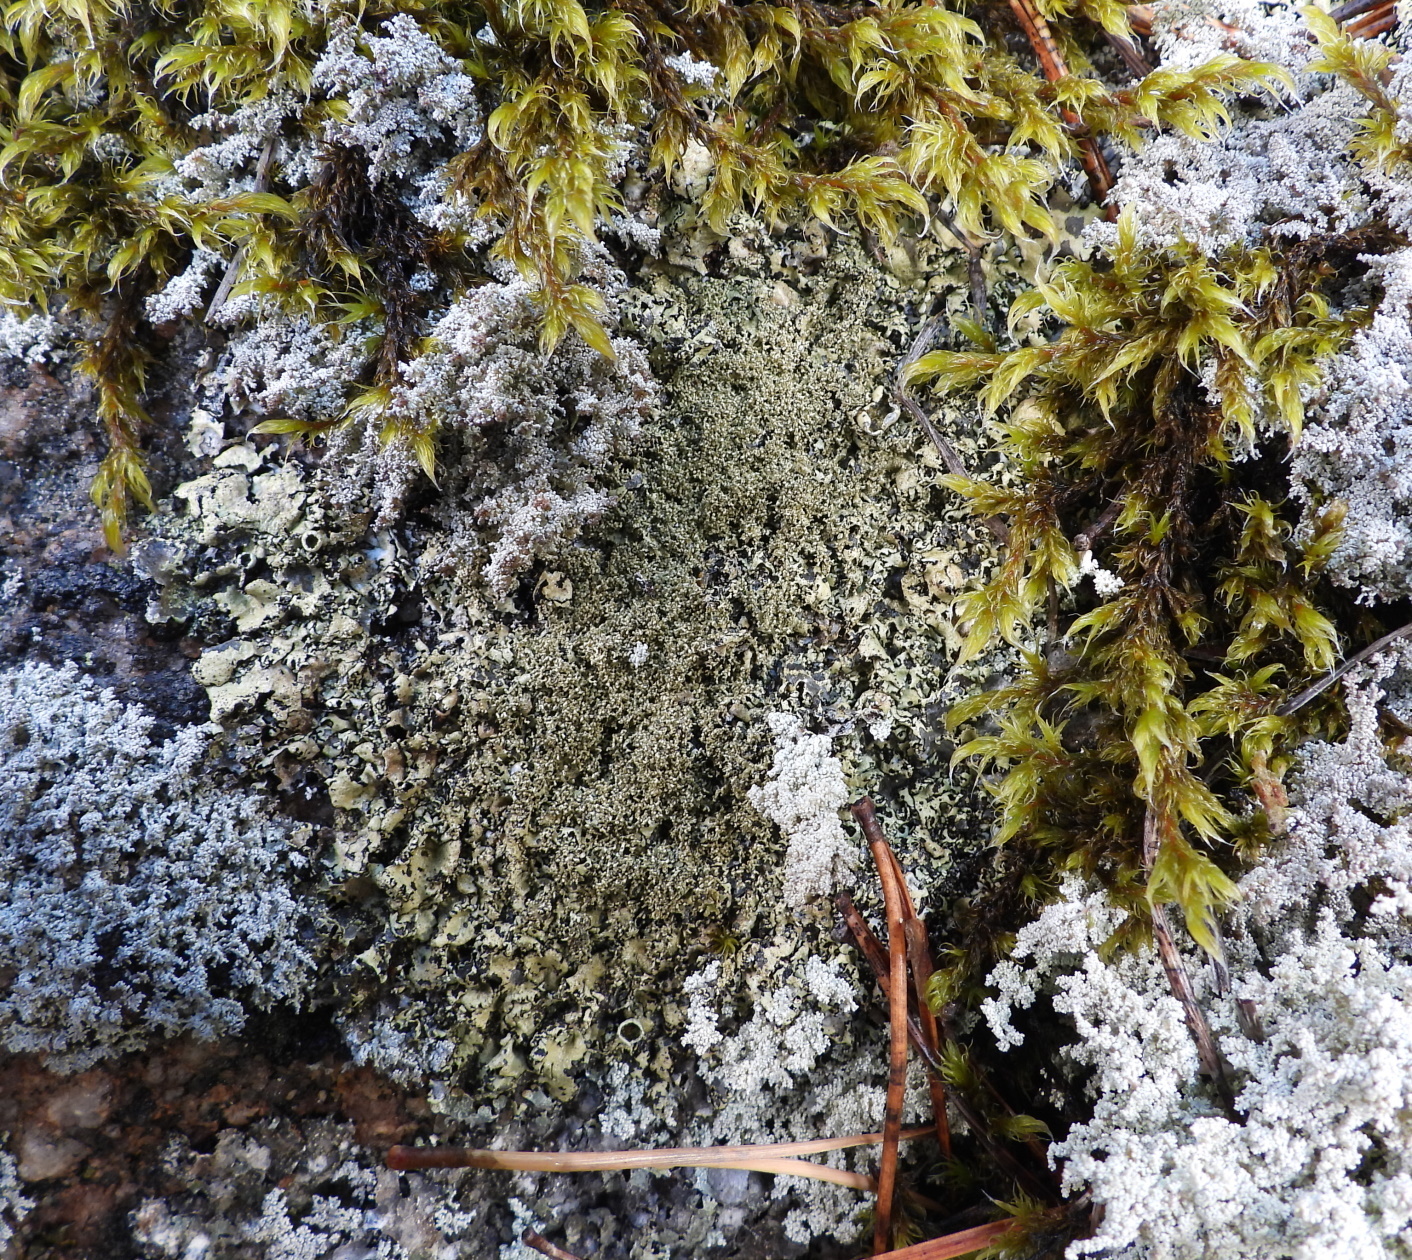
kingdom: Fungi
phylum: Ascomycota
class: Lecanoromycetes
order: Lecanorales
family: Parmeliaceae
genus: Xanthoparmelia
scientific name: Xanthoparmelia conspersa
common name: Peppered rock shield
